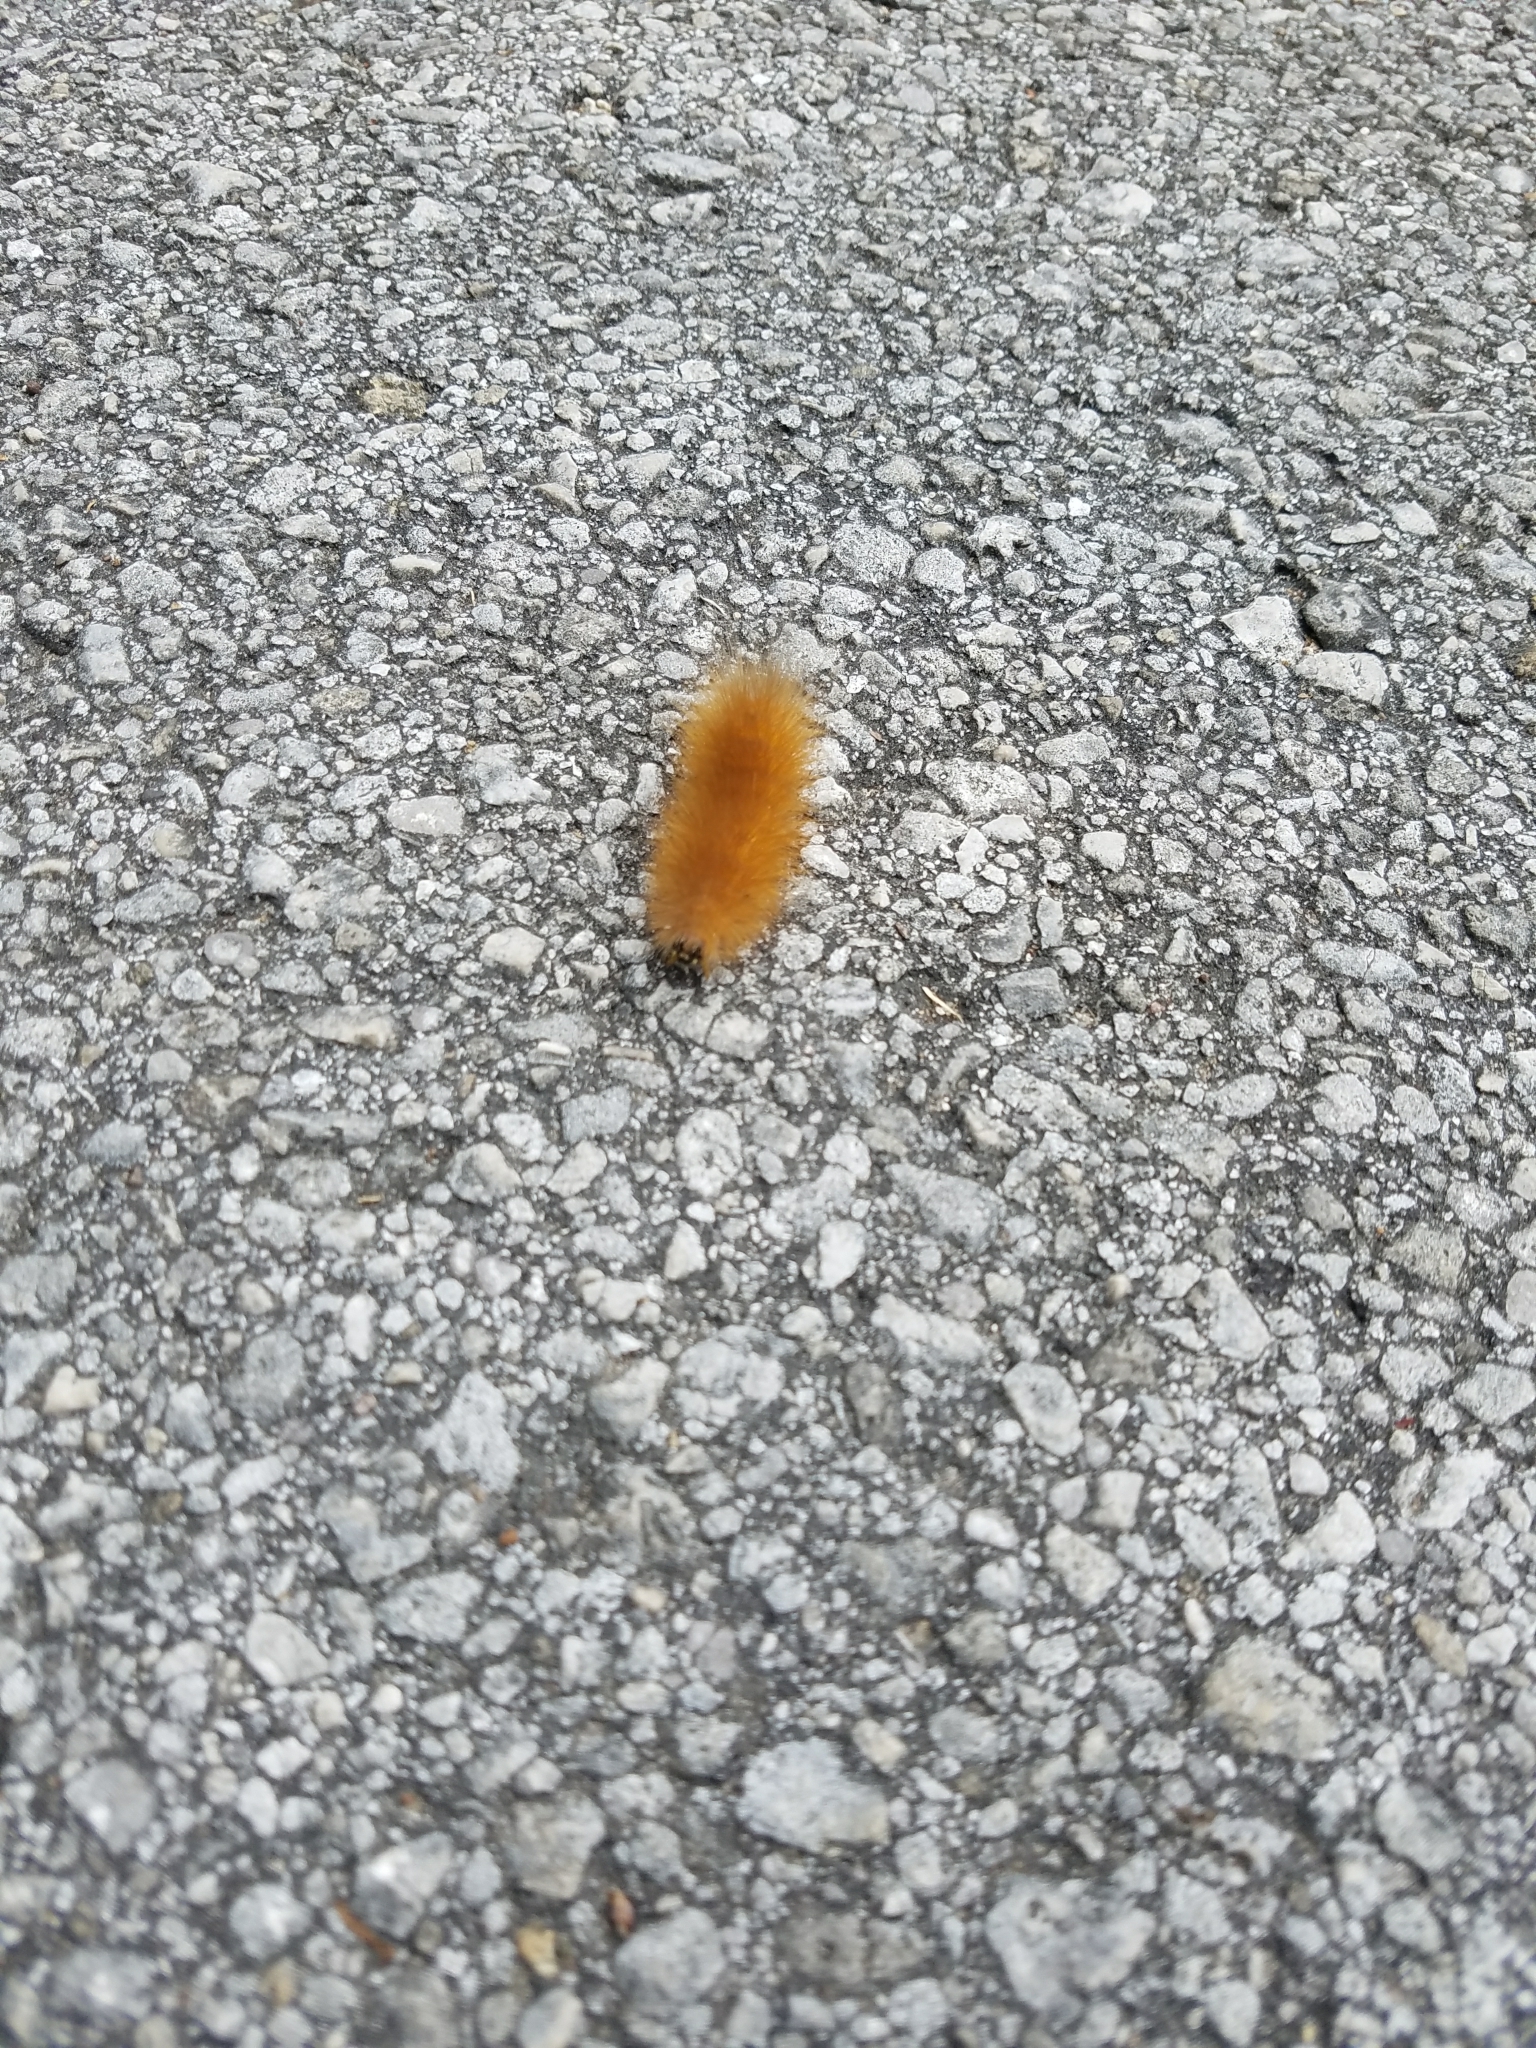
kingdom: Animalia
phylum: Arthropoda
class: Insecta
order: Lepidoptera
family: Erebidae
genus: Estigmene
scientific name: Estigmene acrea
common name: Salt marsh moth
